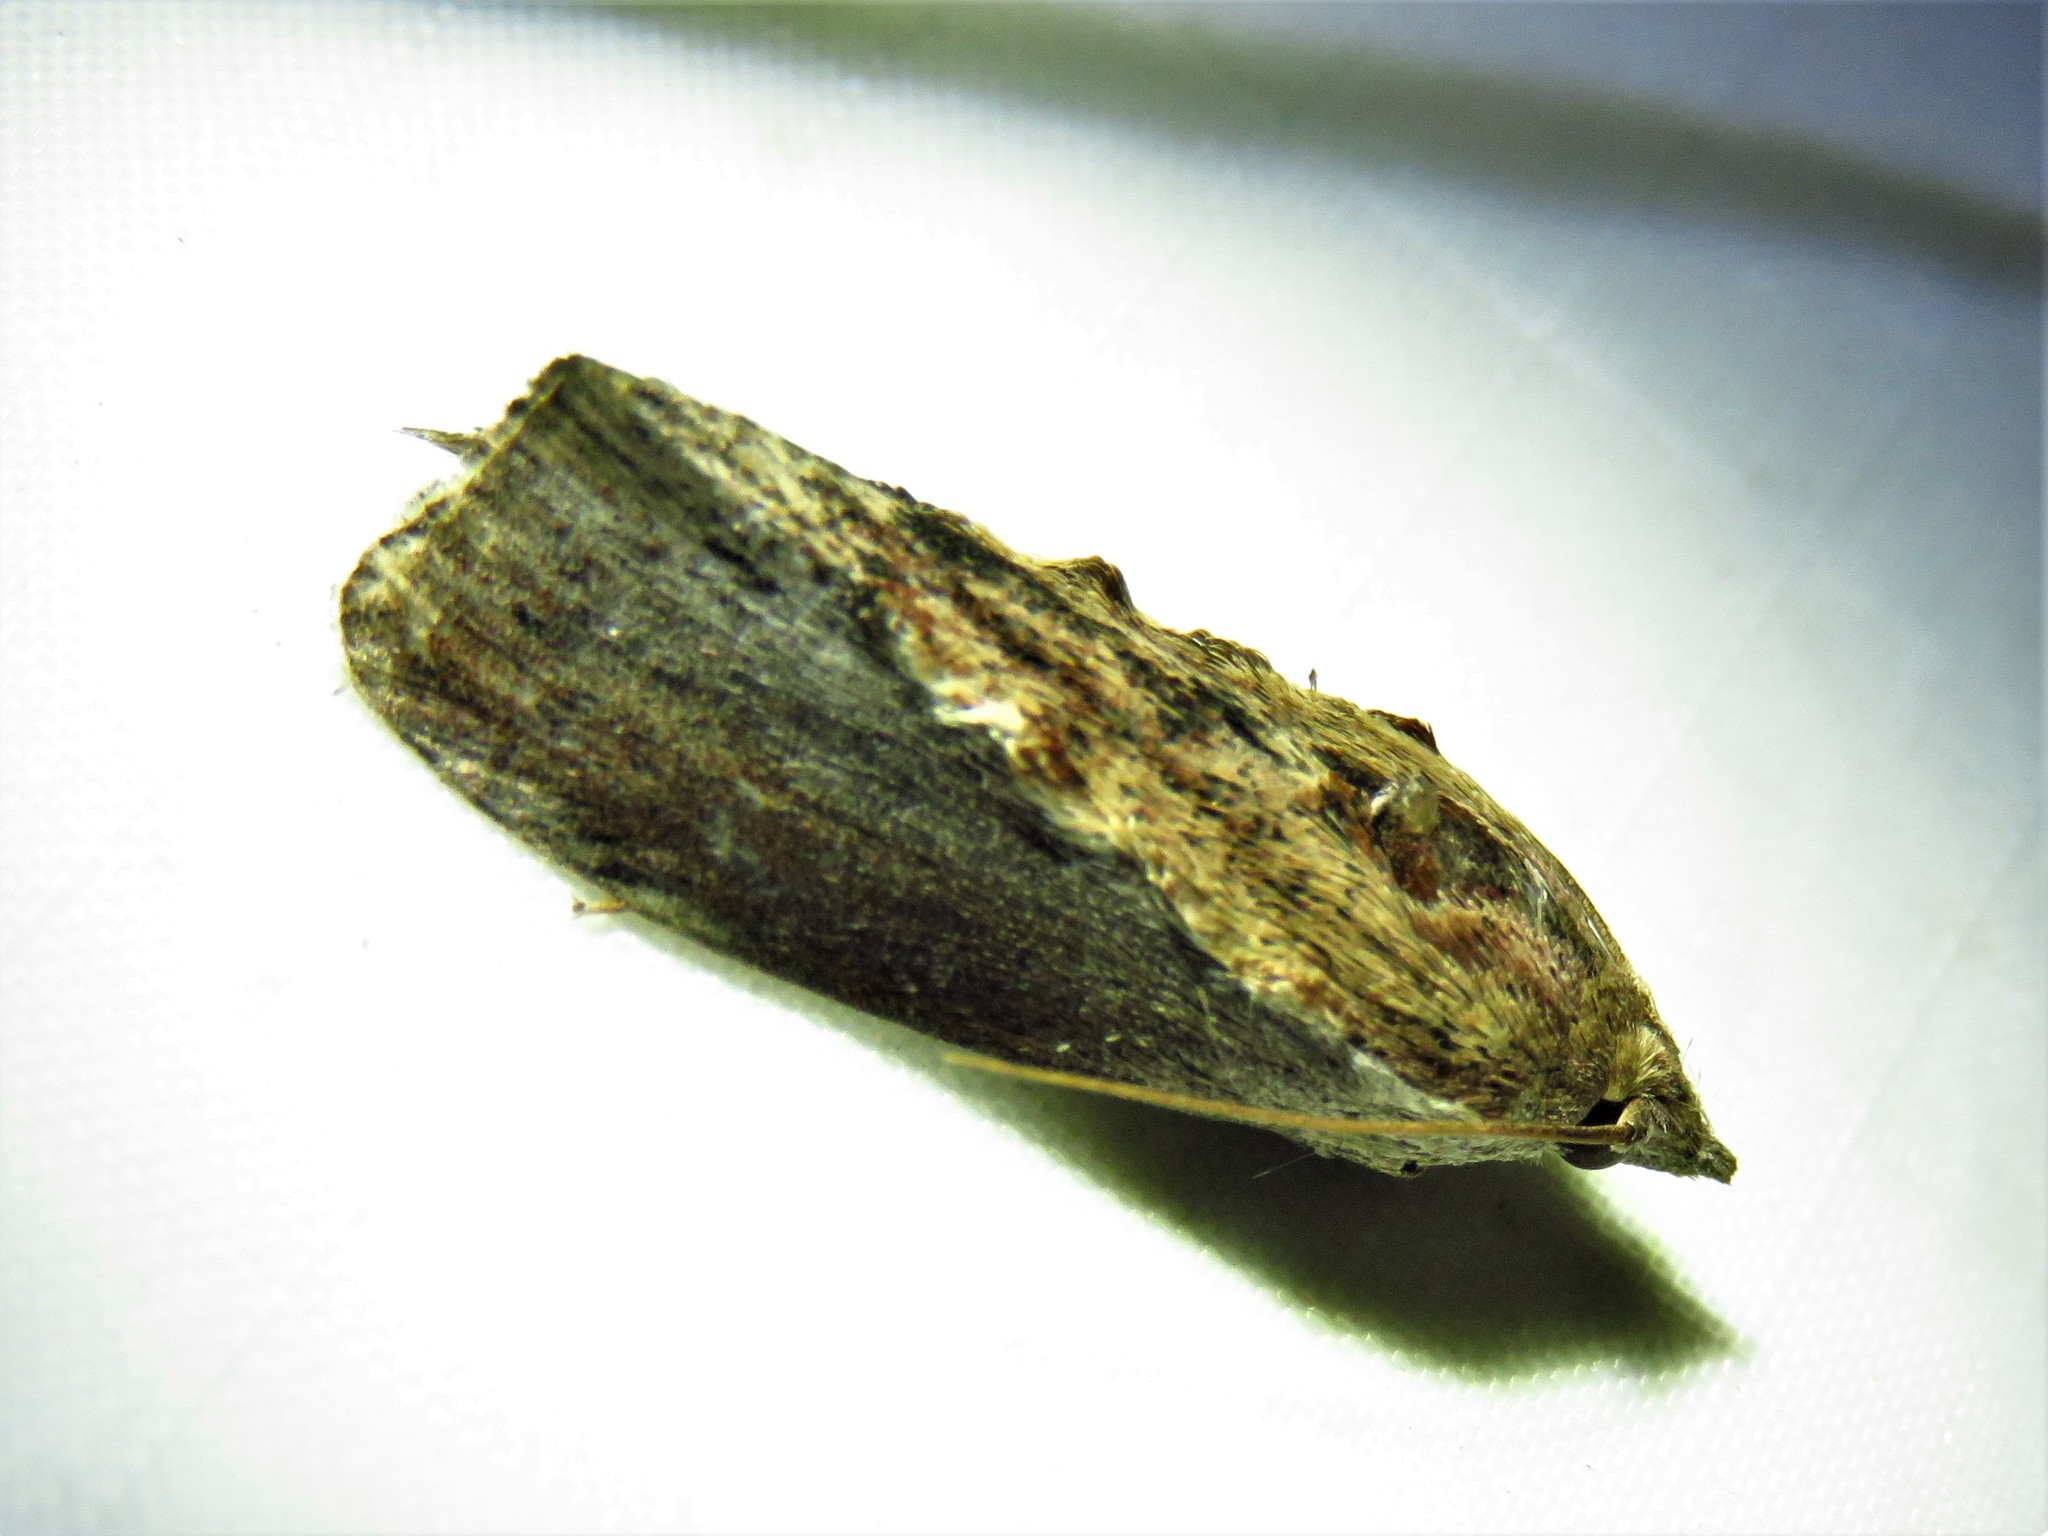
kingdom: Animalia
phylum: Arthropoda
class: Insecta
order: Lepidoptera
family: Pyralidae
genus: Galleria
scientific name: Galleria mellonella
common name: Greater wax moth
